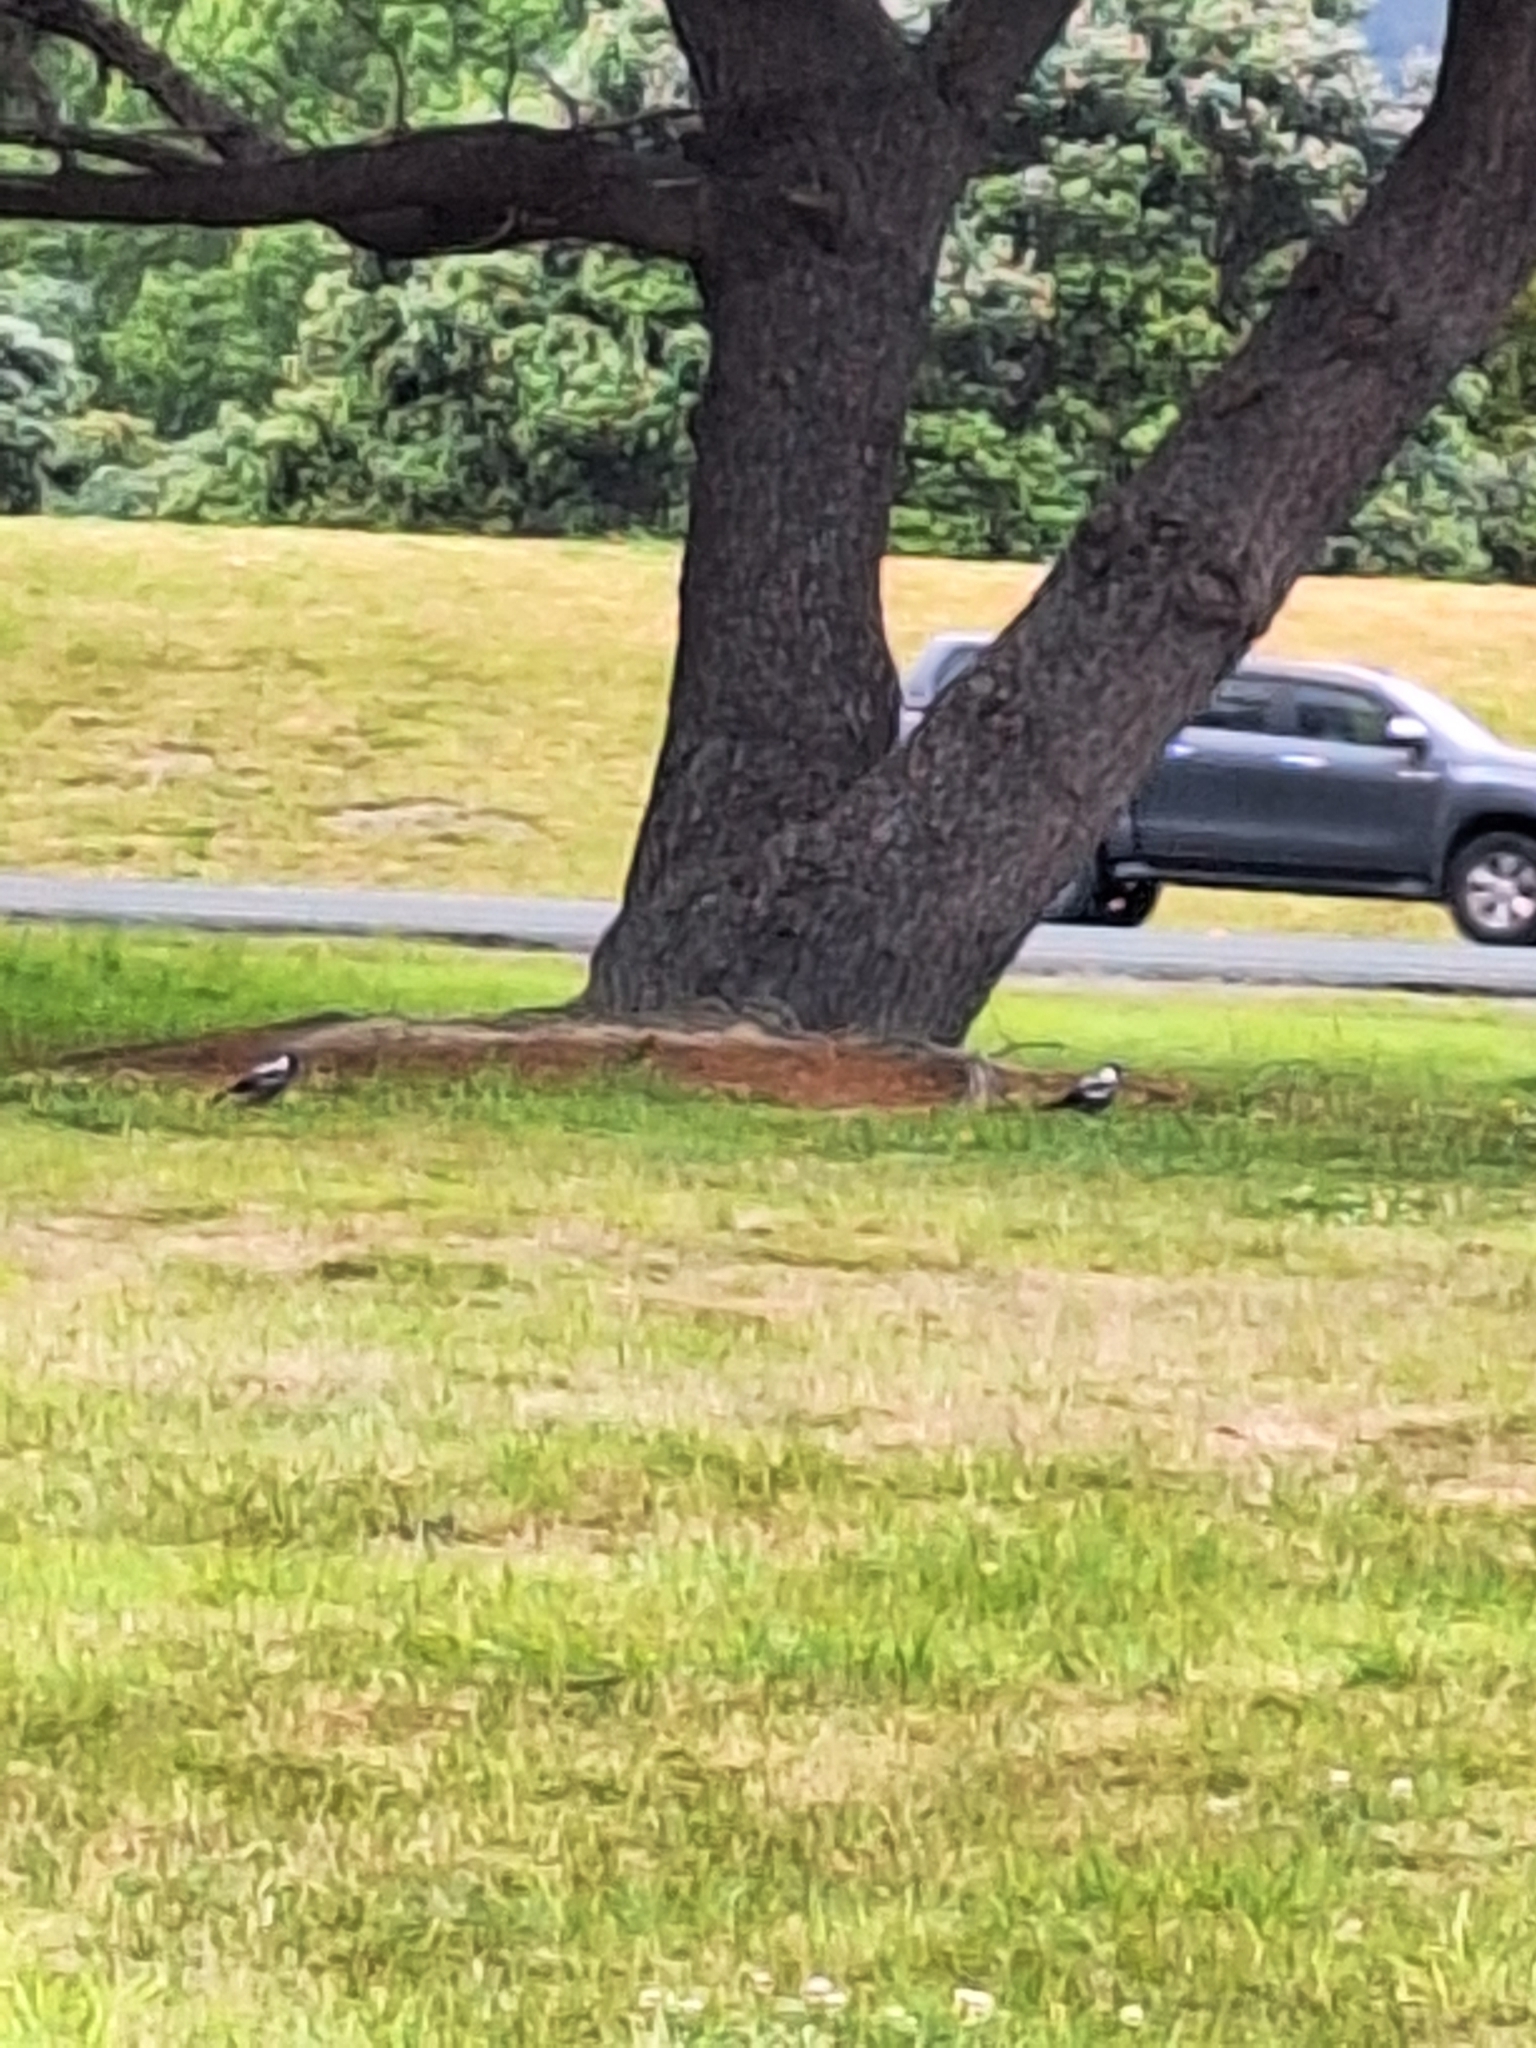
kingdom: Animalia
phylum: Chordata
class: Aves
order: Psittaciformes
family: Psittacidae
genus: Platycercus
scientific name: Platycercus eximius
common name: Eastern rosella
